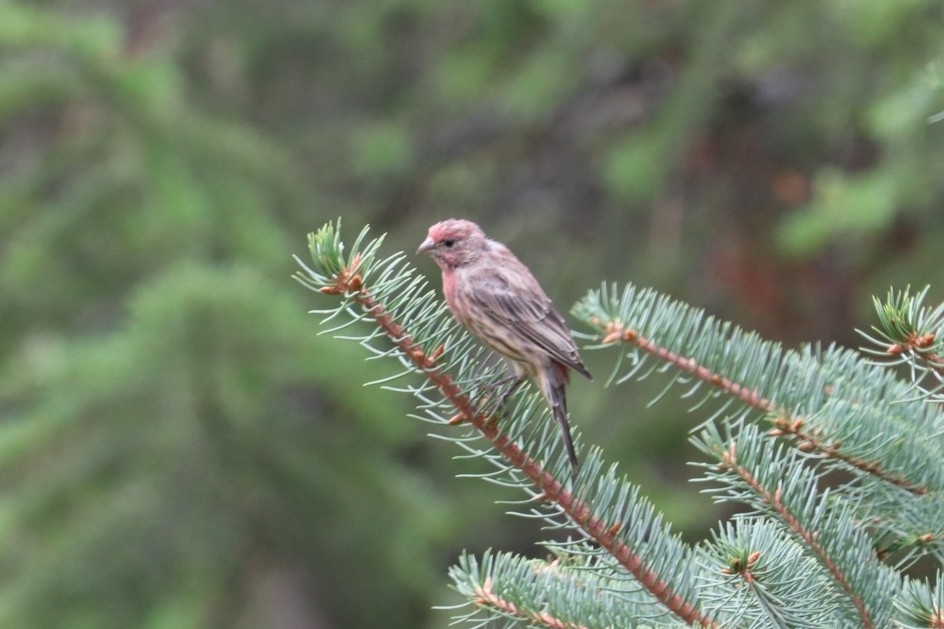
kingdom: Animalia
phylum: Chordata
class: Aves
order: Passeriformes
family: Fringillidae
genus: Haemorhous
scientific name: Haemorhous mexicanus
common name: House finch
